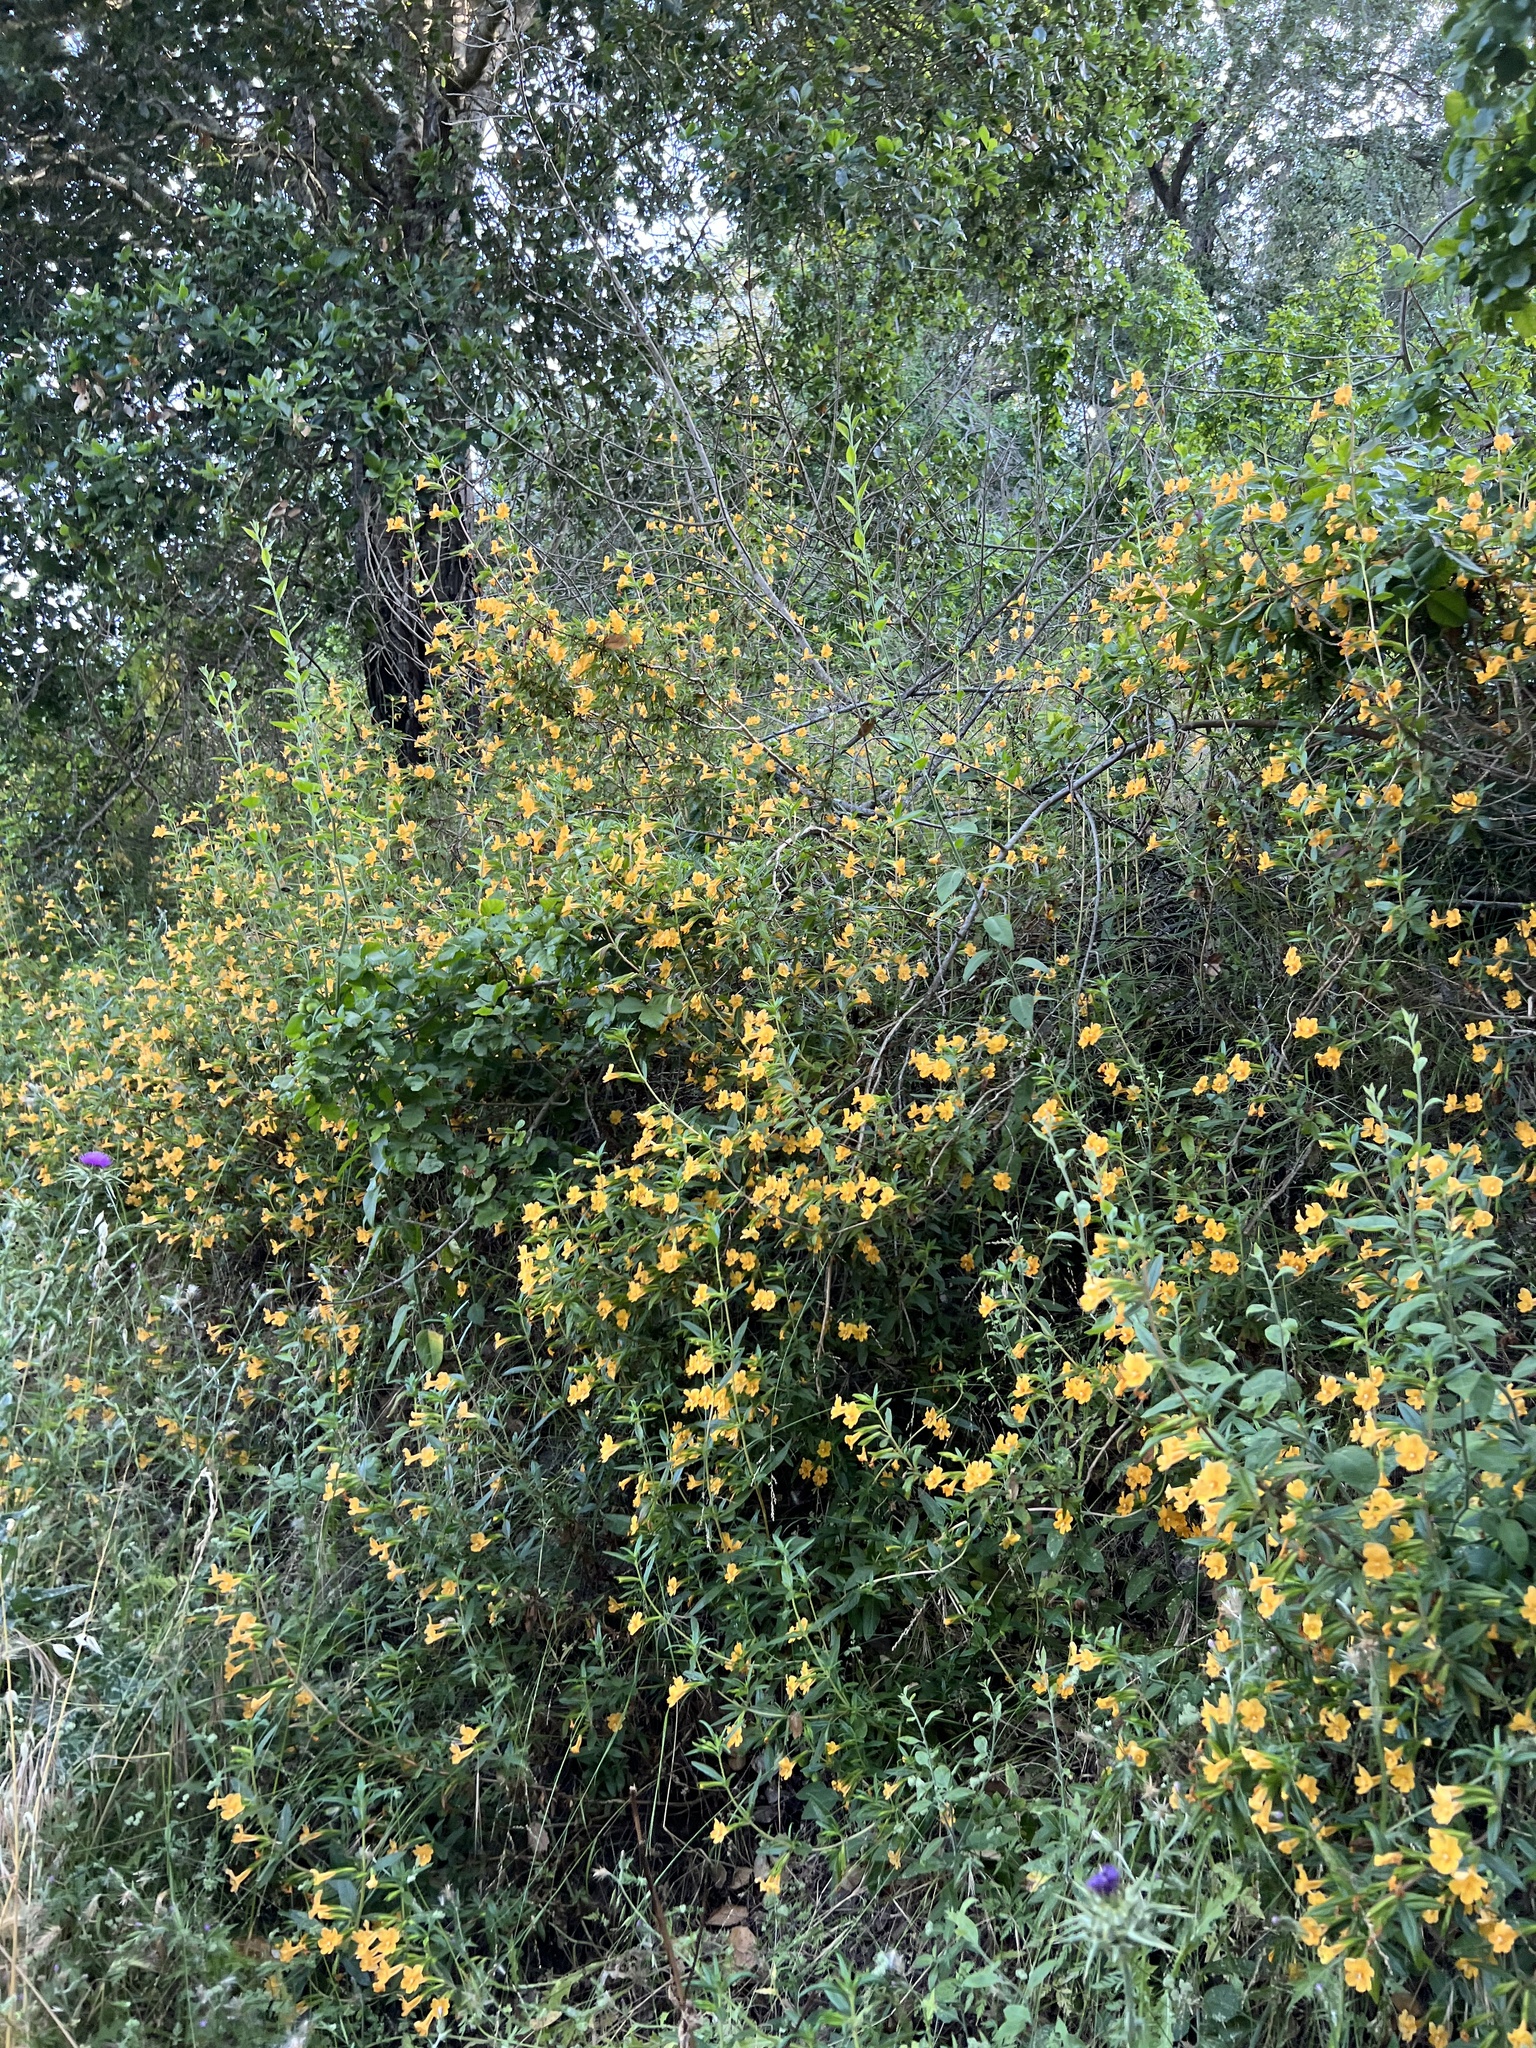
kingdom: Plantae
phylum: Tracheophyta
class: Magnoliopsida
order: Lamiales
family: Phrymaceae
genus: Diplacus
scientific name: Diplacus aurantiacus
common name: Bush monkey-flower
